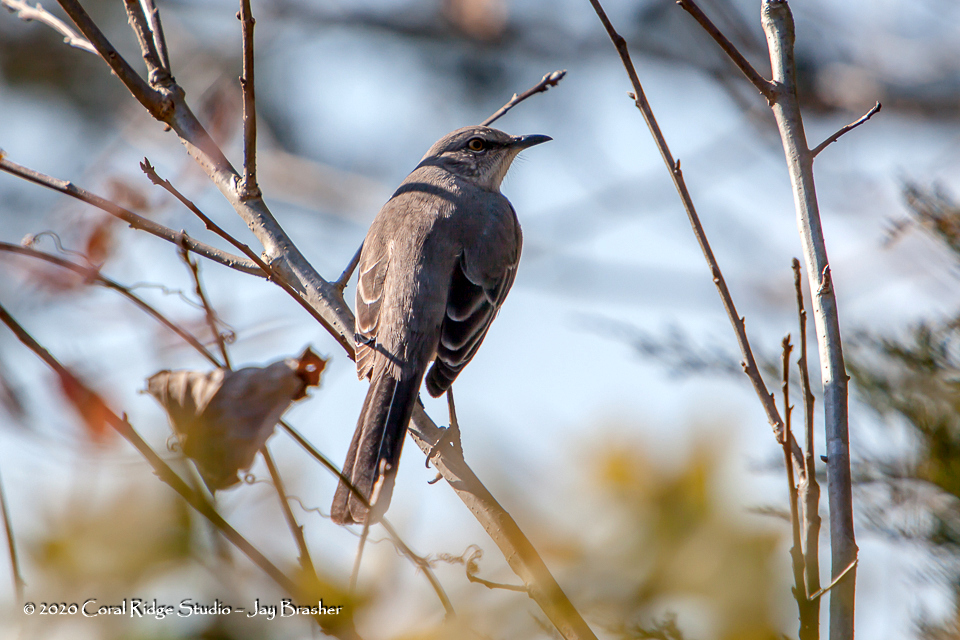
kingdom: Animalia
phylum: Chordata
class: Aves
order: Passeriformes
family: Mimidae
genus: Mimus
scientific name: Mimus polyglottos
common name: Northern mockingbird
